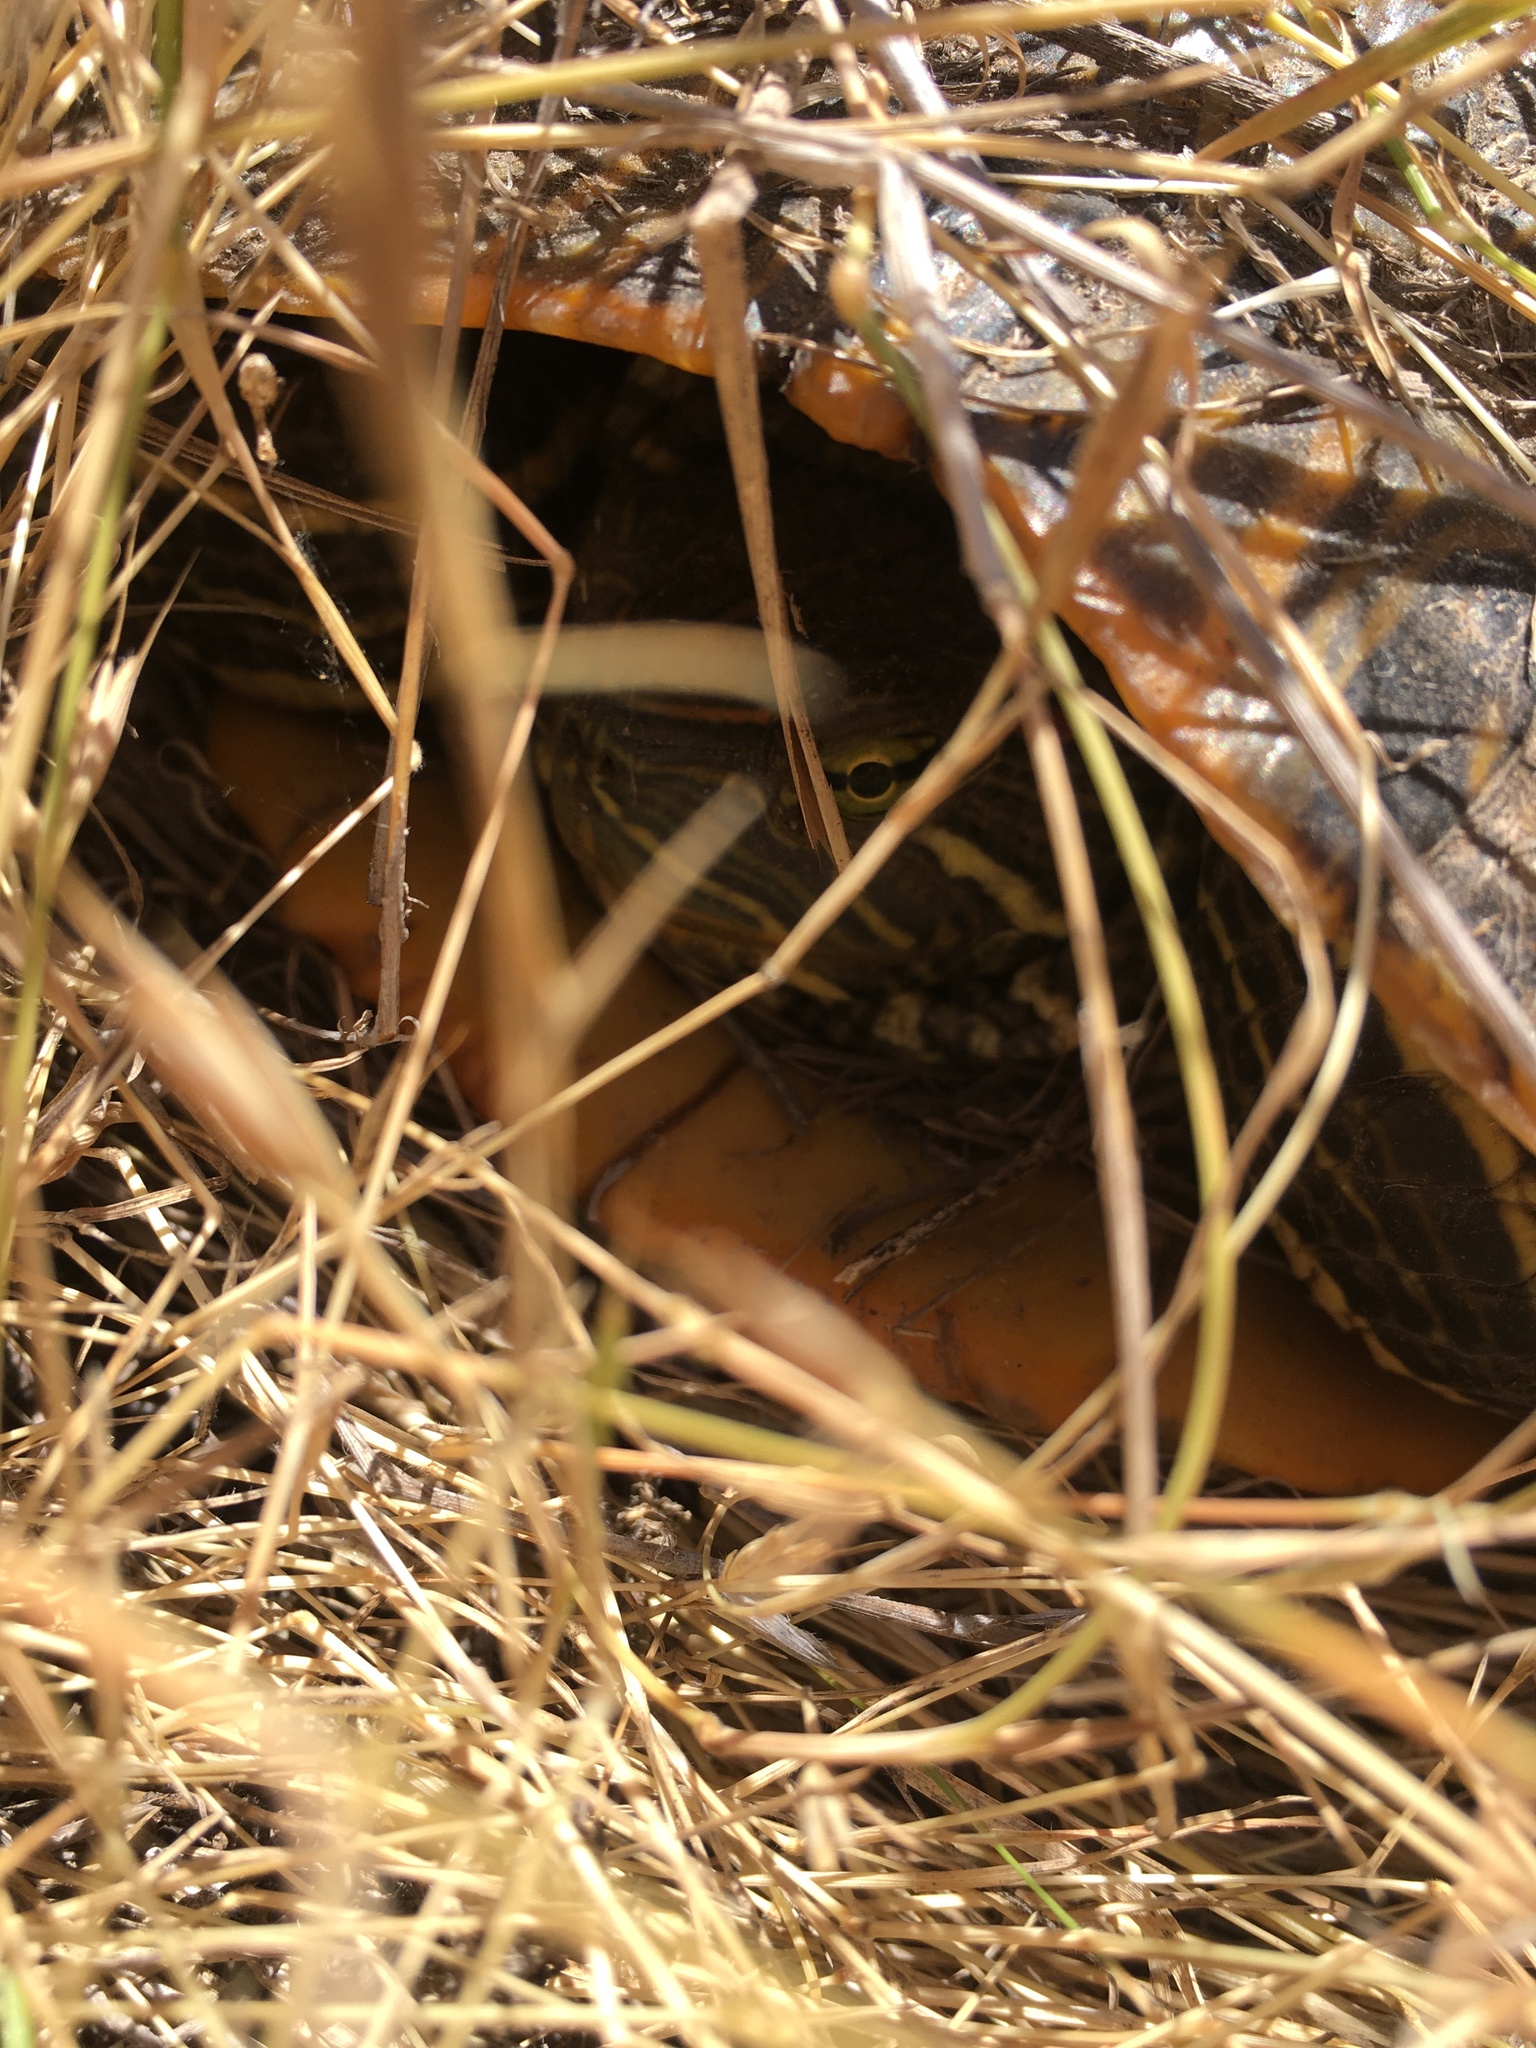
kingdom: Animalia
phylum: Chordata
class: Testudines
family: Emydidae
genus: Trachemys
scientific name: Trachemys scripta
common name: Slider
